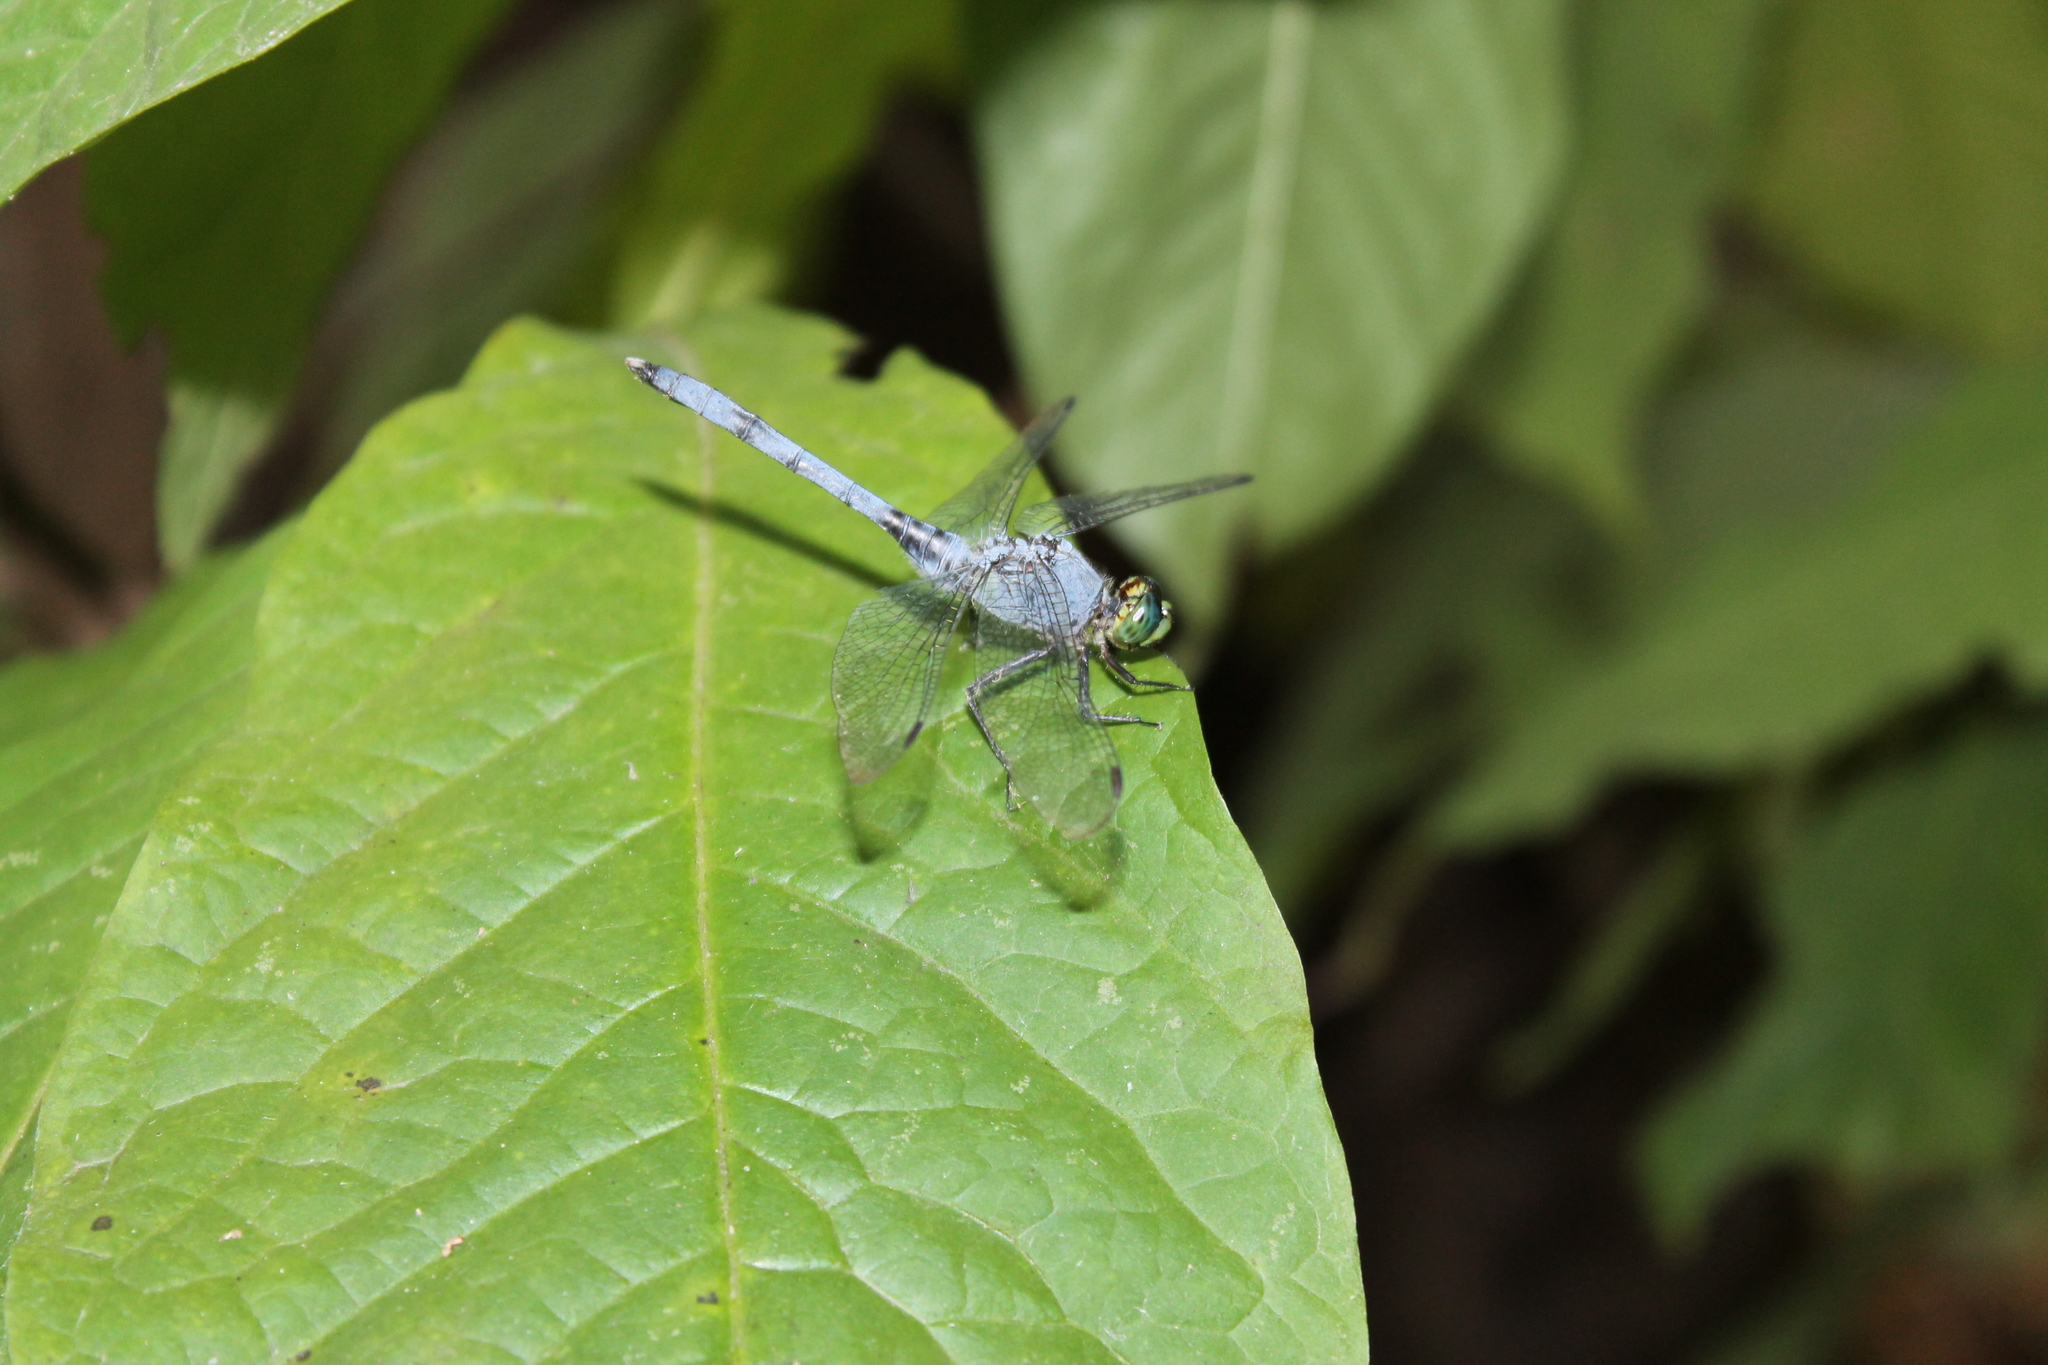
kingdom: Animalia
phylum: Arthropoda
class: Insecta
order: Odonata
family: Libellulidae
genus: Erythemis
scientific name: Erythemis simplicicollis
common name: Eastern pondhawk
